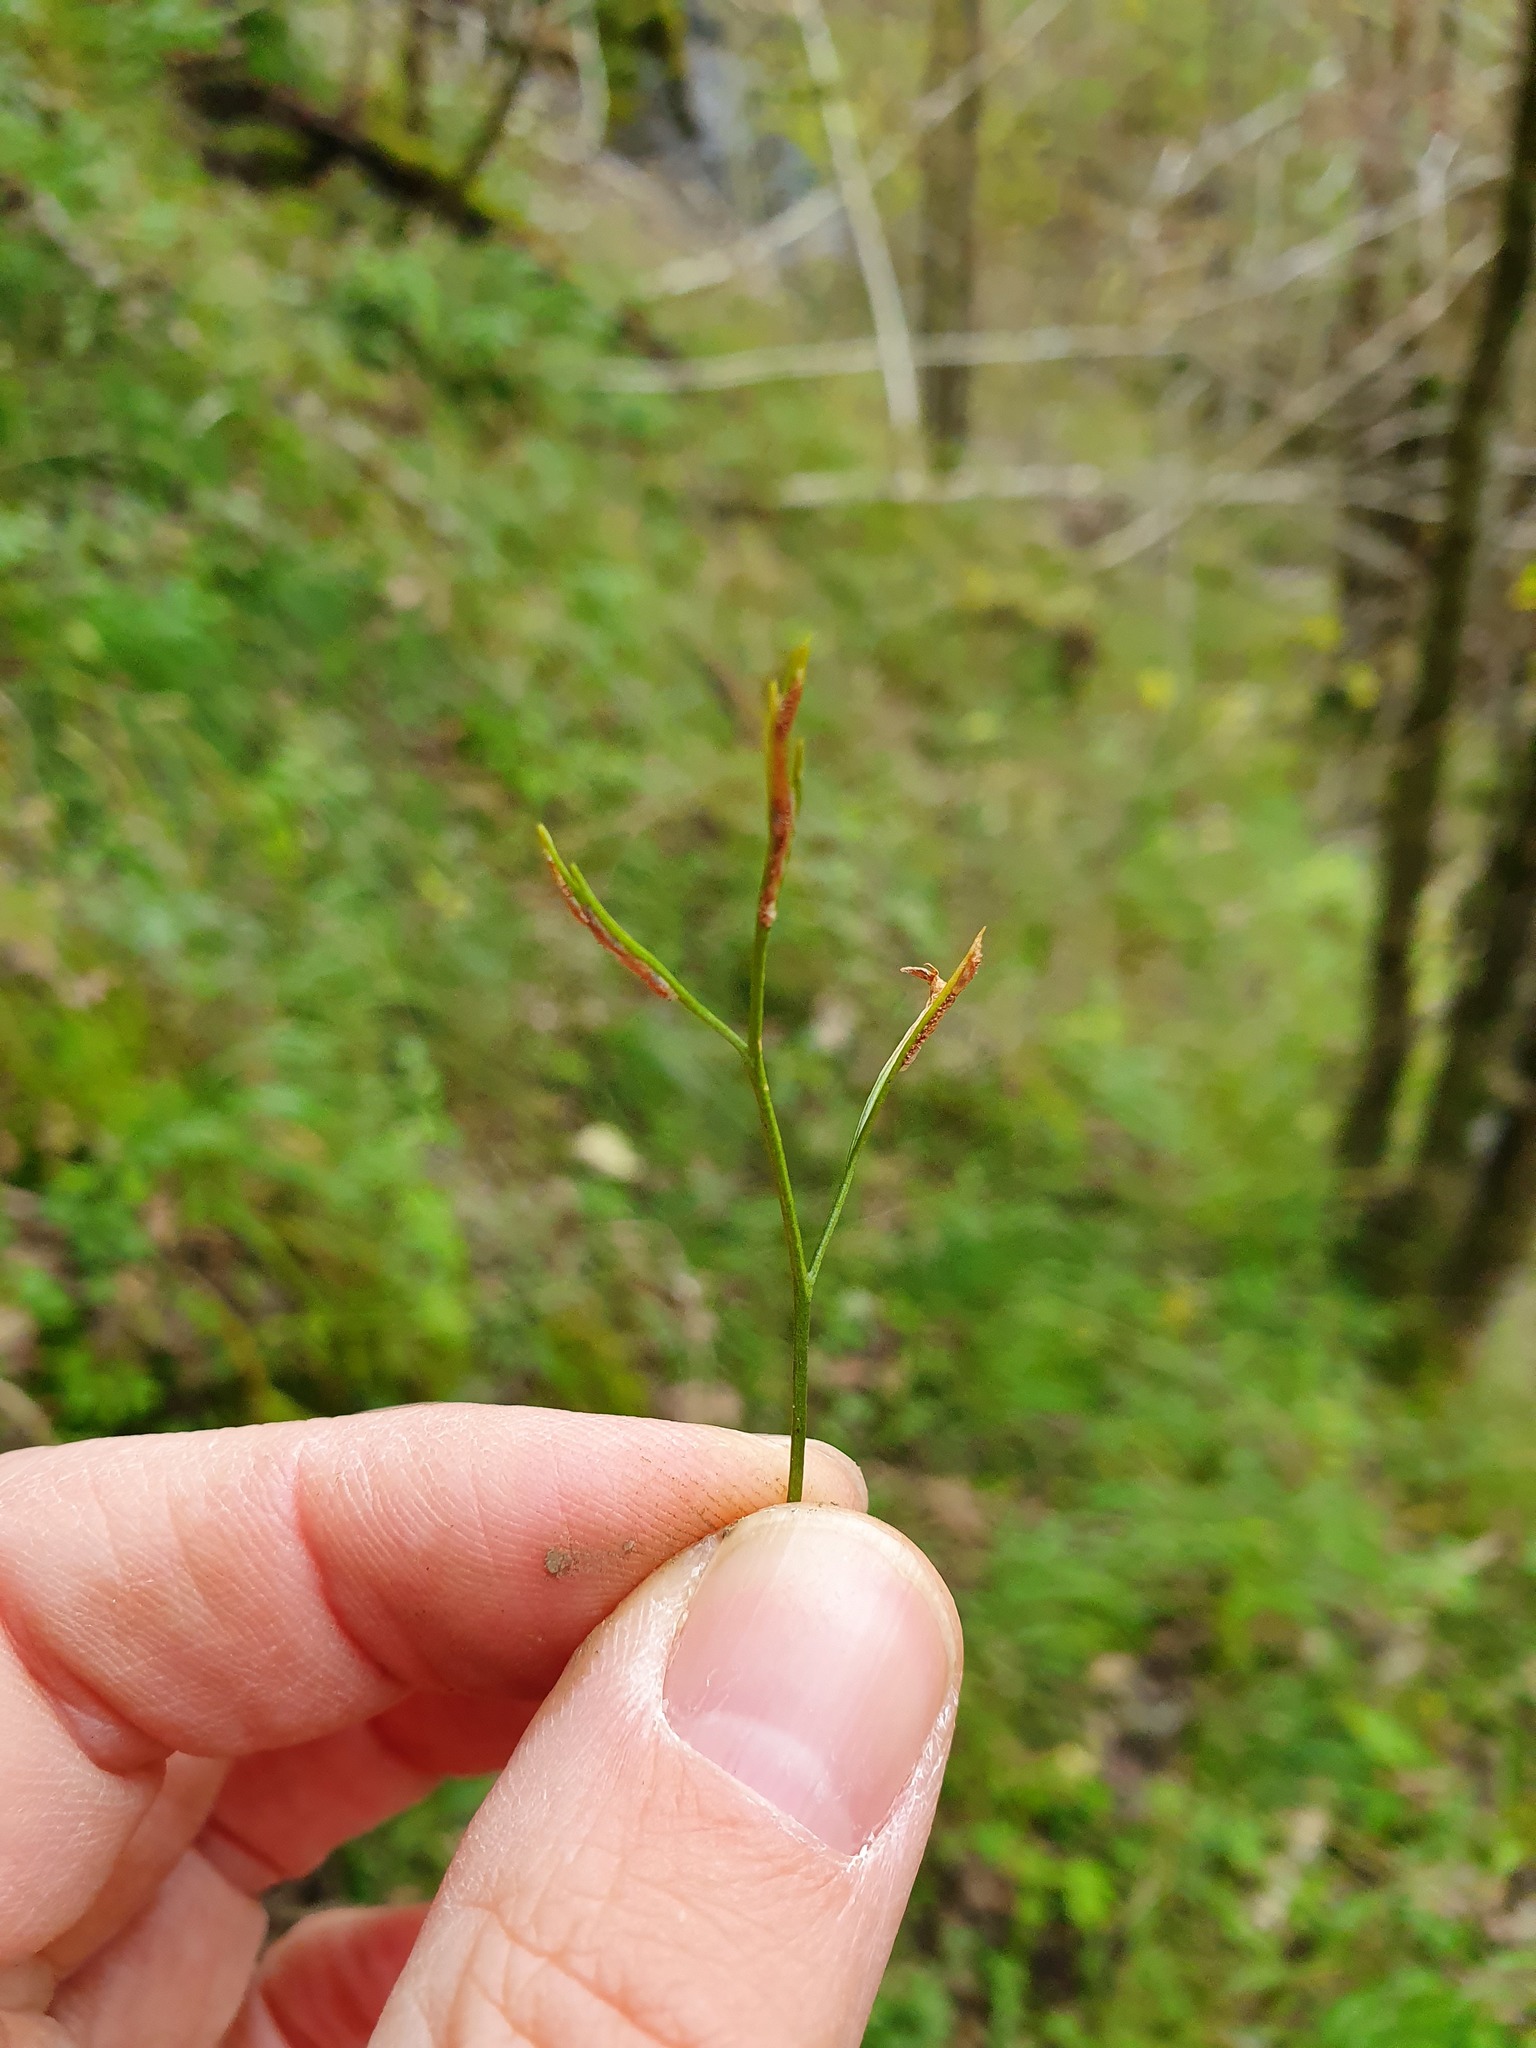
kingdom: Plantae
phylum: Tracheophyta
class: Polypodiopsida
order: Polypodiales
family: Aspleniaceae
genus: Asplenium
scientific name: Asplenium septentrionale
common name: Forked spleenwort
